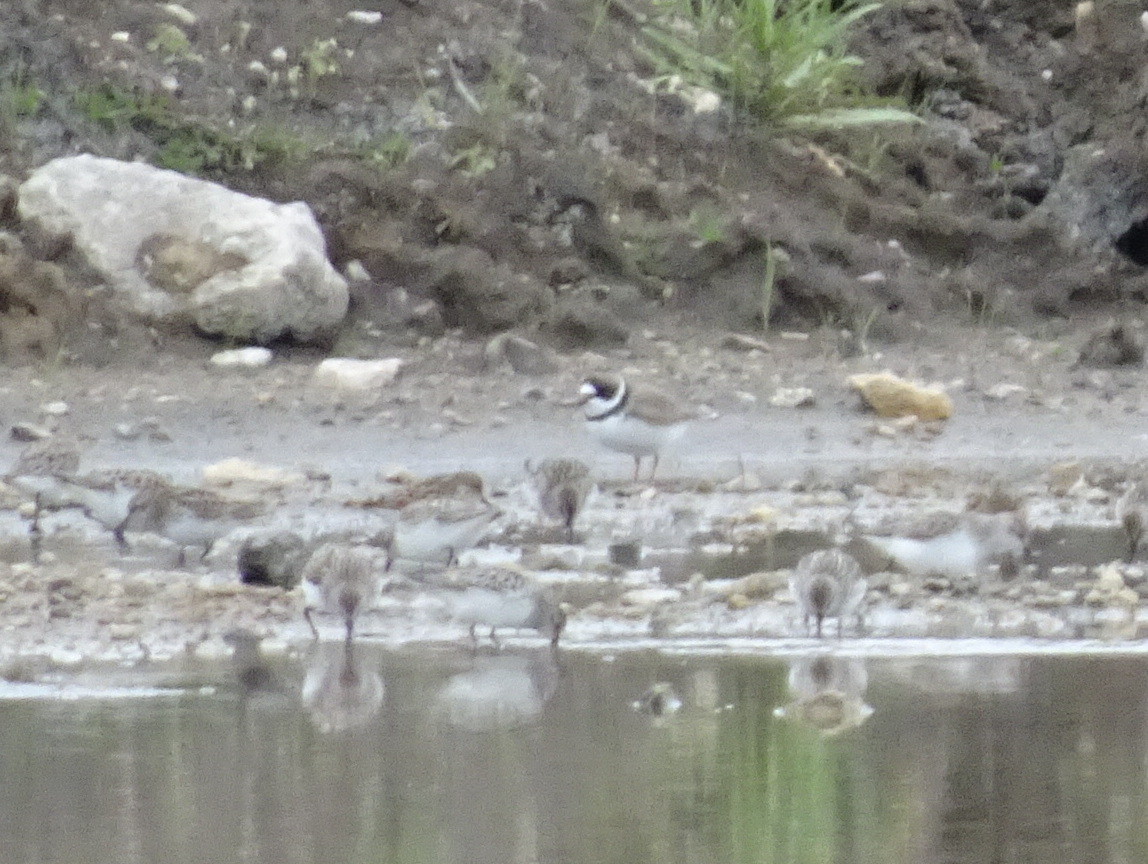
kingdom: Animalia
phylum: Chordata
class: Aves
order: Charadriiformes
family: Charadriidae
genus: Charadrius
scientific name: Charadrius semipalmatus
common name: Semipalmated plover
